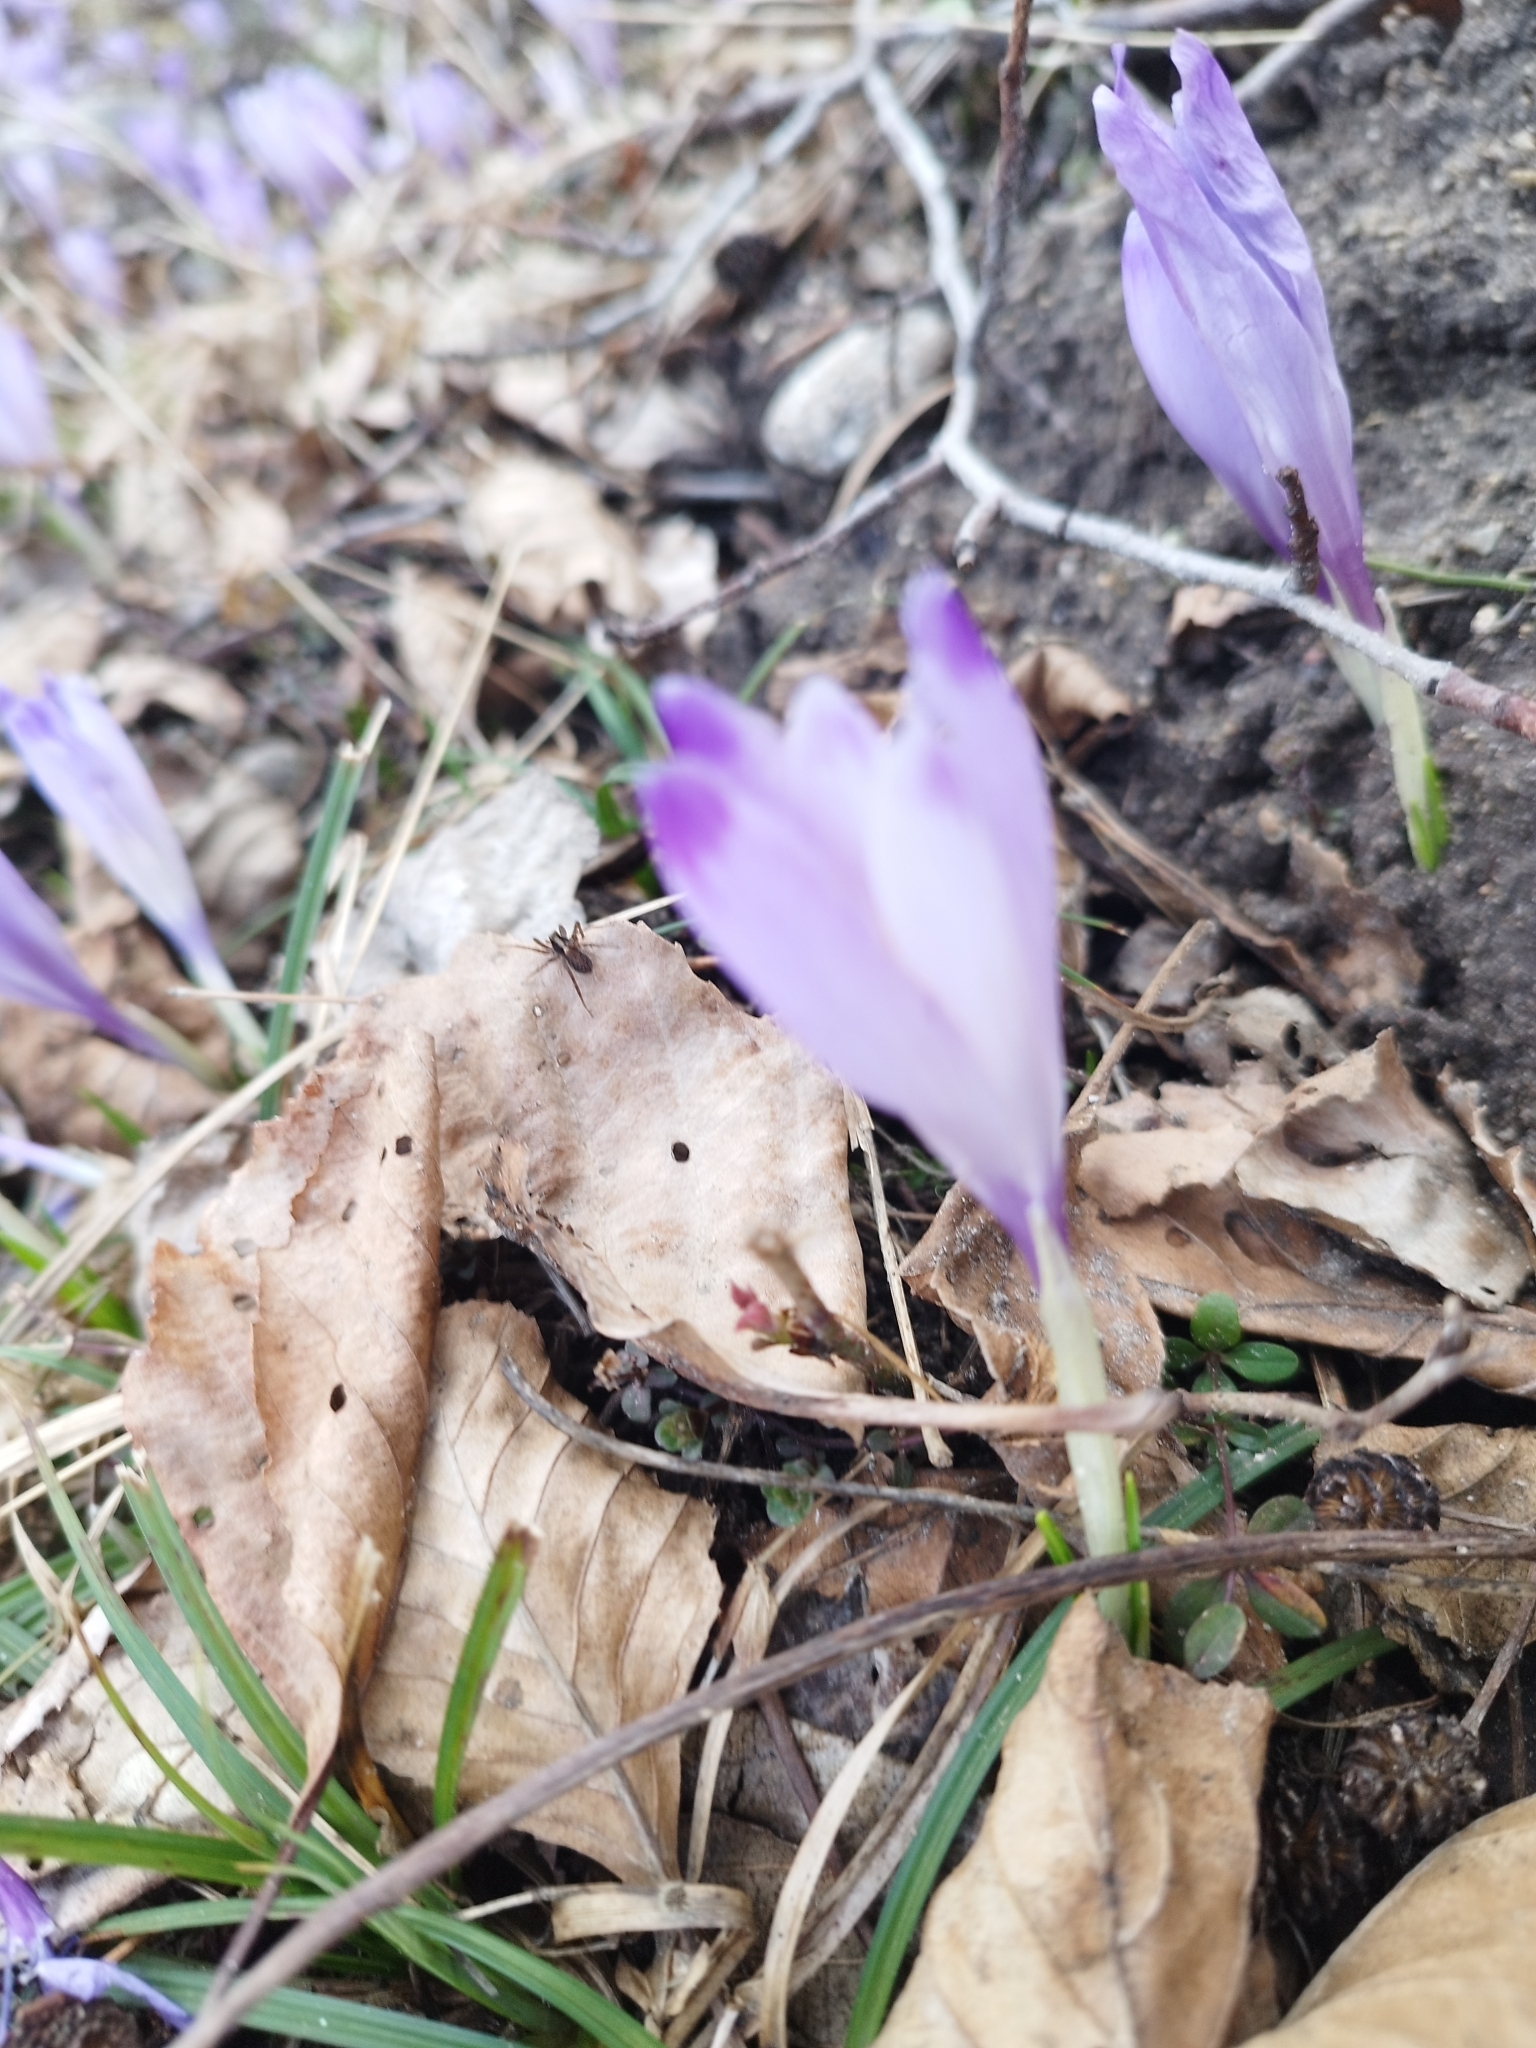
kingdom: Plantae
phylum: Tracheophyta
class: Liliopsida
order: Asparagales
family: Iridaceae
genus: Crocus
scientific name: Crocus heuffelianus
